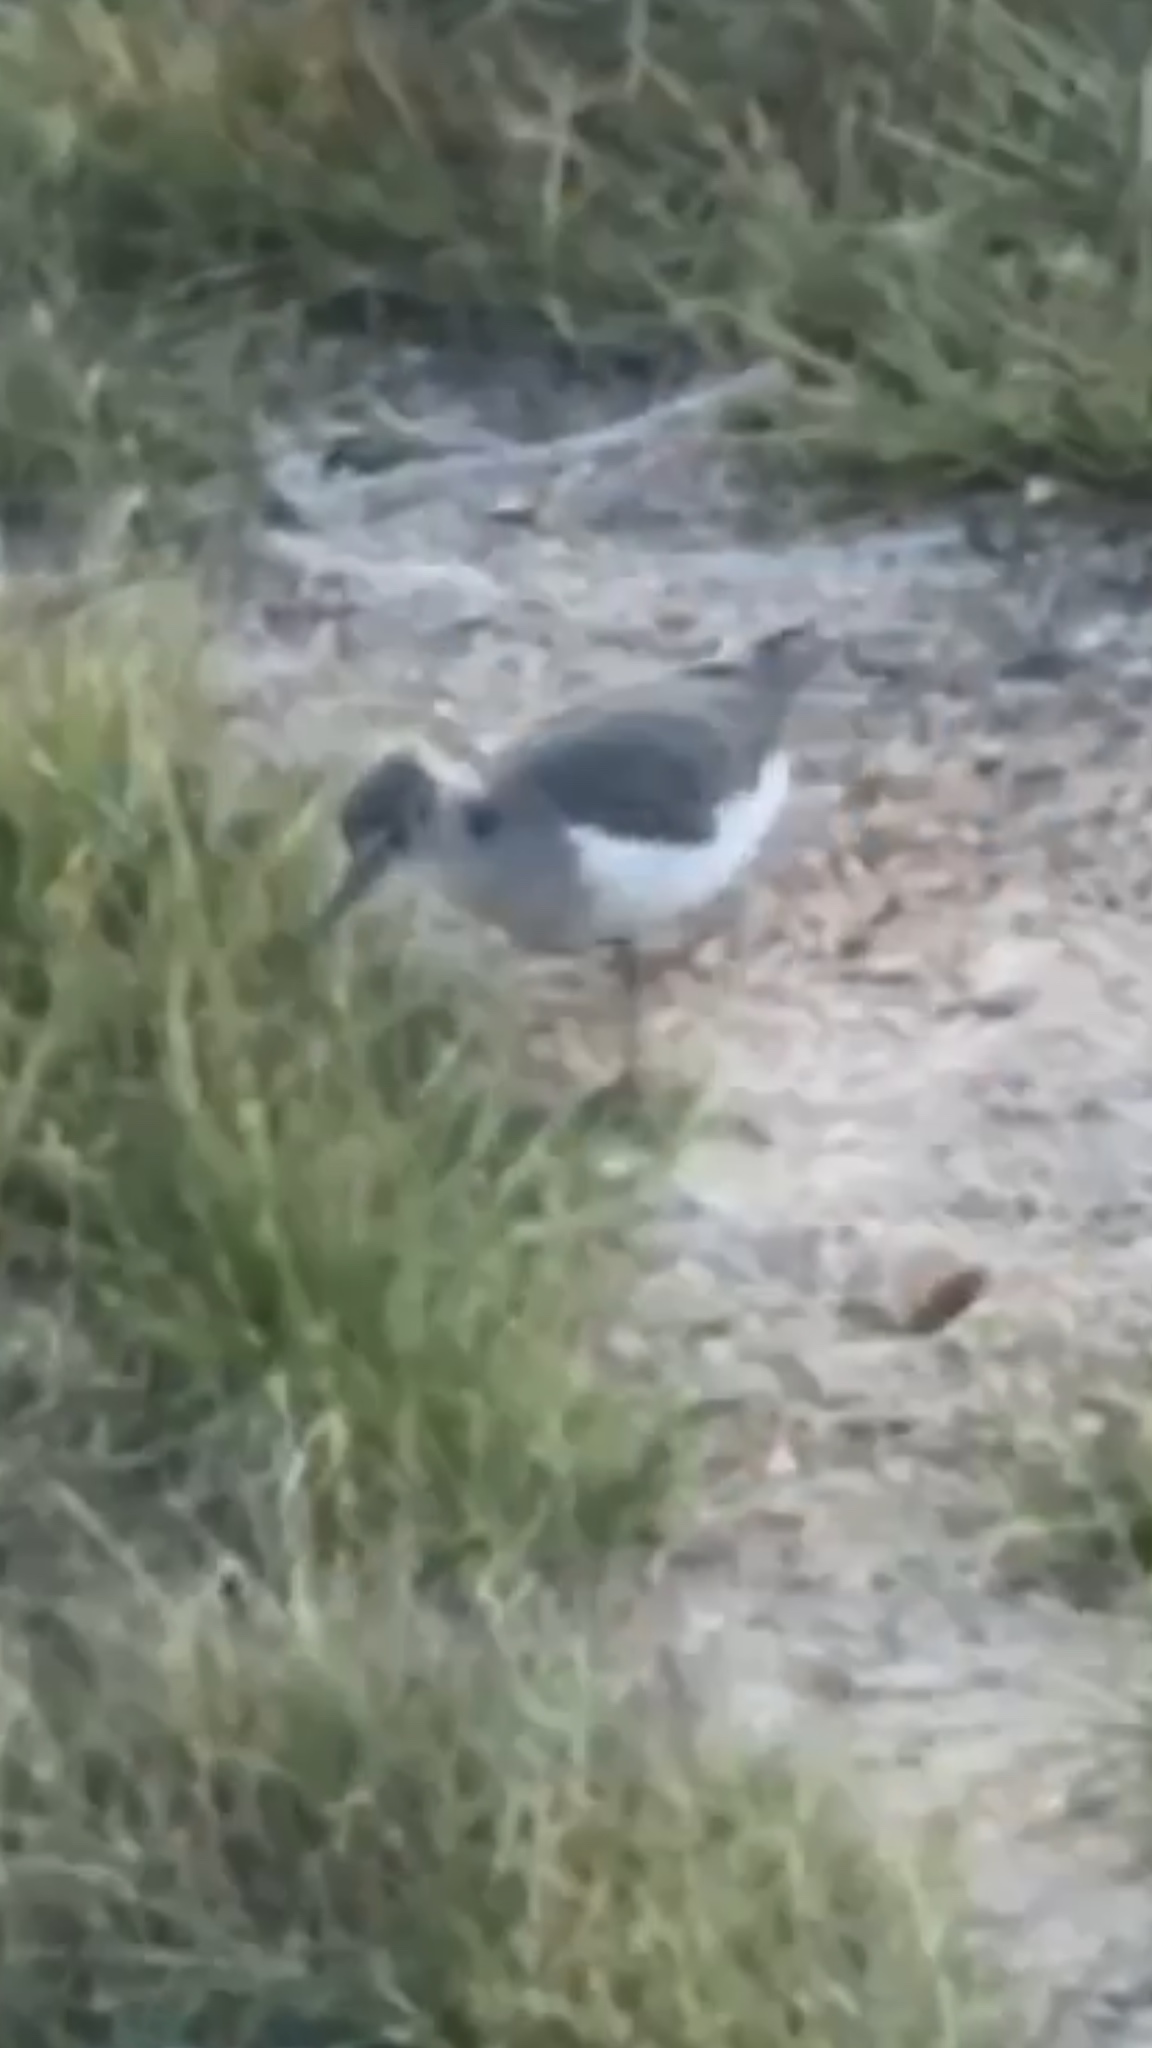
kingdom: Animalia
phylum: Chordata
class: Aves
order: Charadriiformes
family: Scolopacidae
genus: Actitis
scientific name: Actitis macularius
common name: Spotted sandpiper
